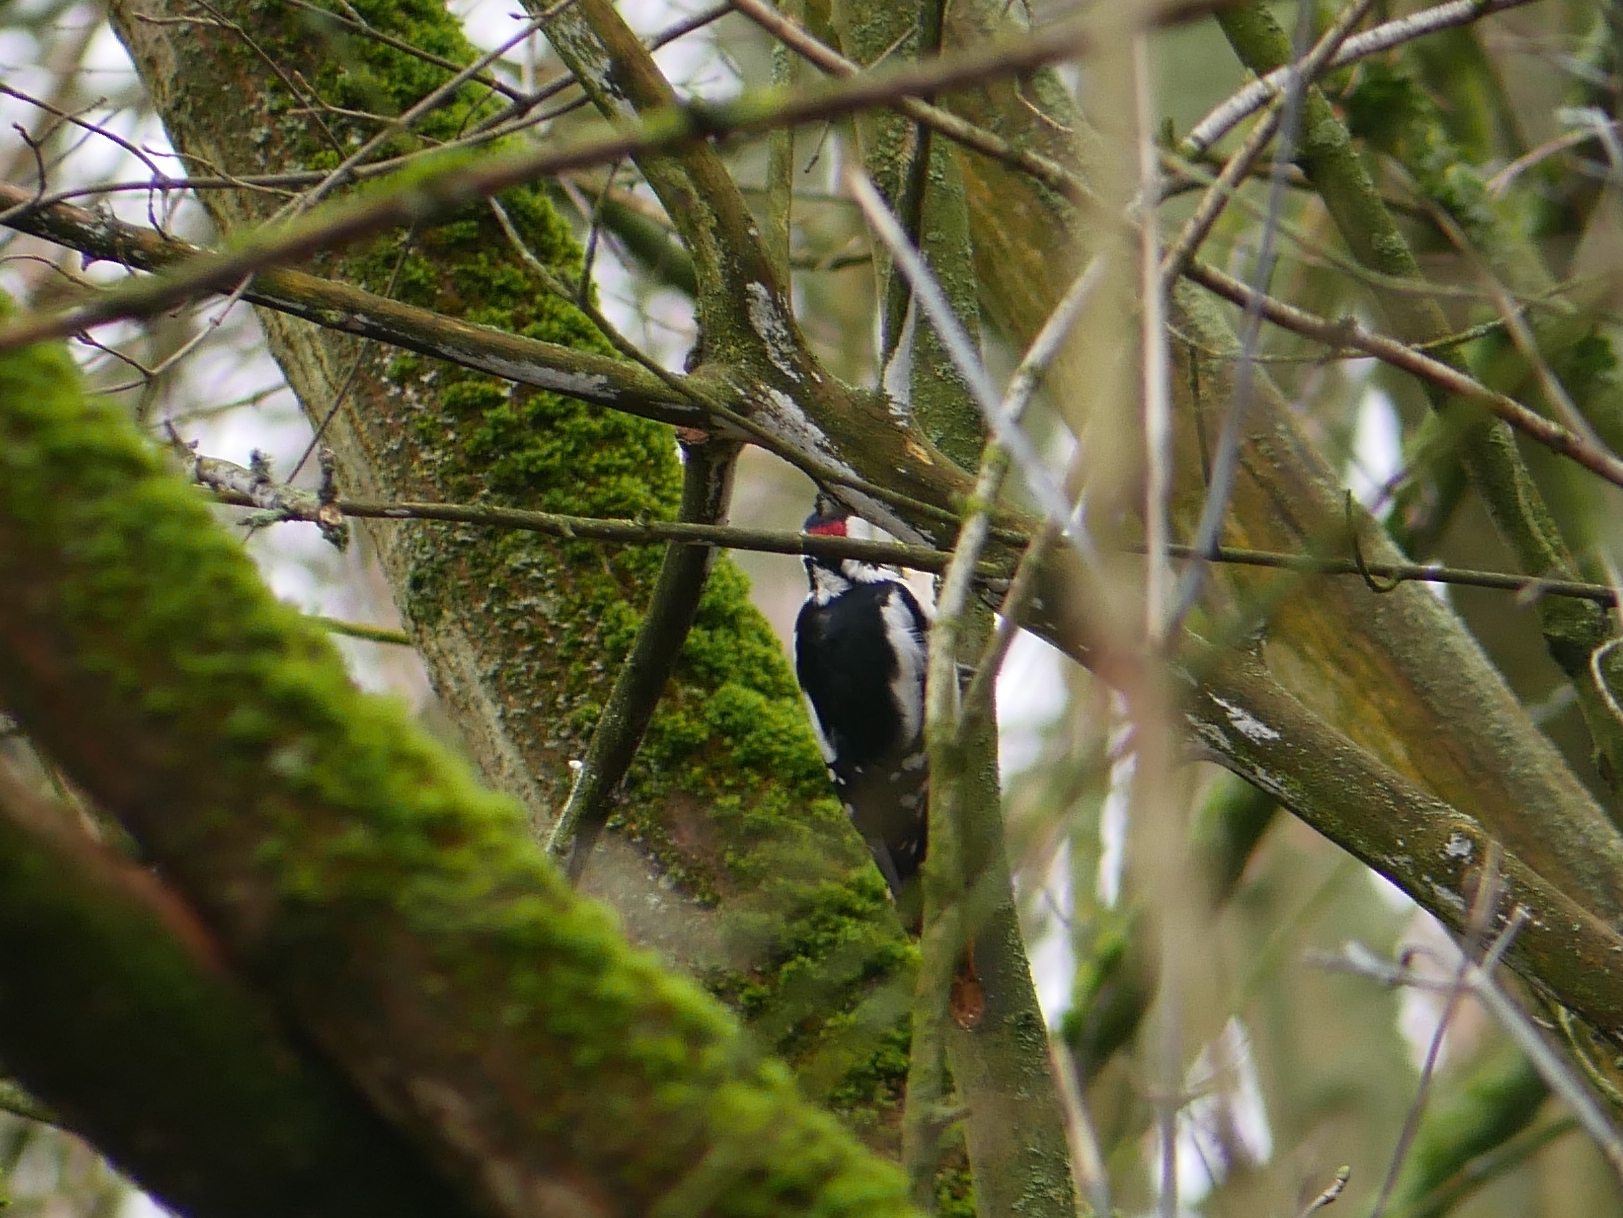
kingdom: Animalia
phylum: Chordata
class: Aves
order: Piciformes
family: Picidae
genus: Dendrocopos
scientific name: Dendrocopos major
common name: Great spotted woodpecker
